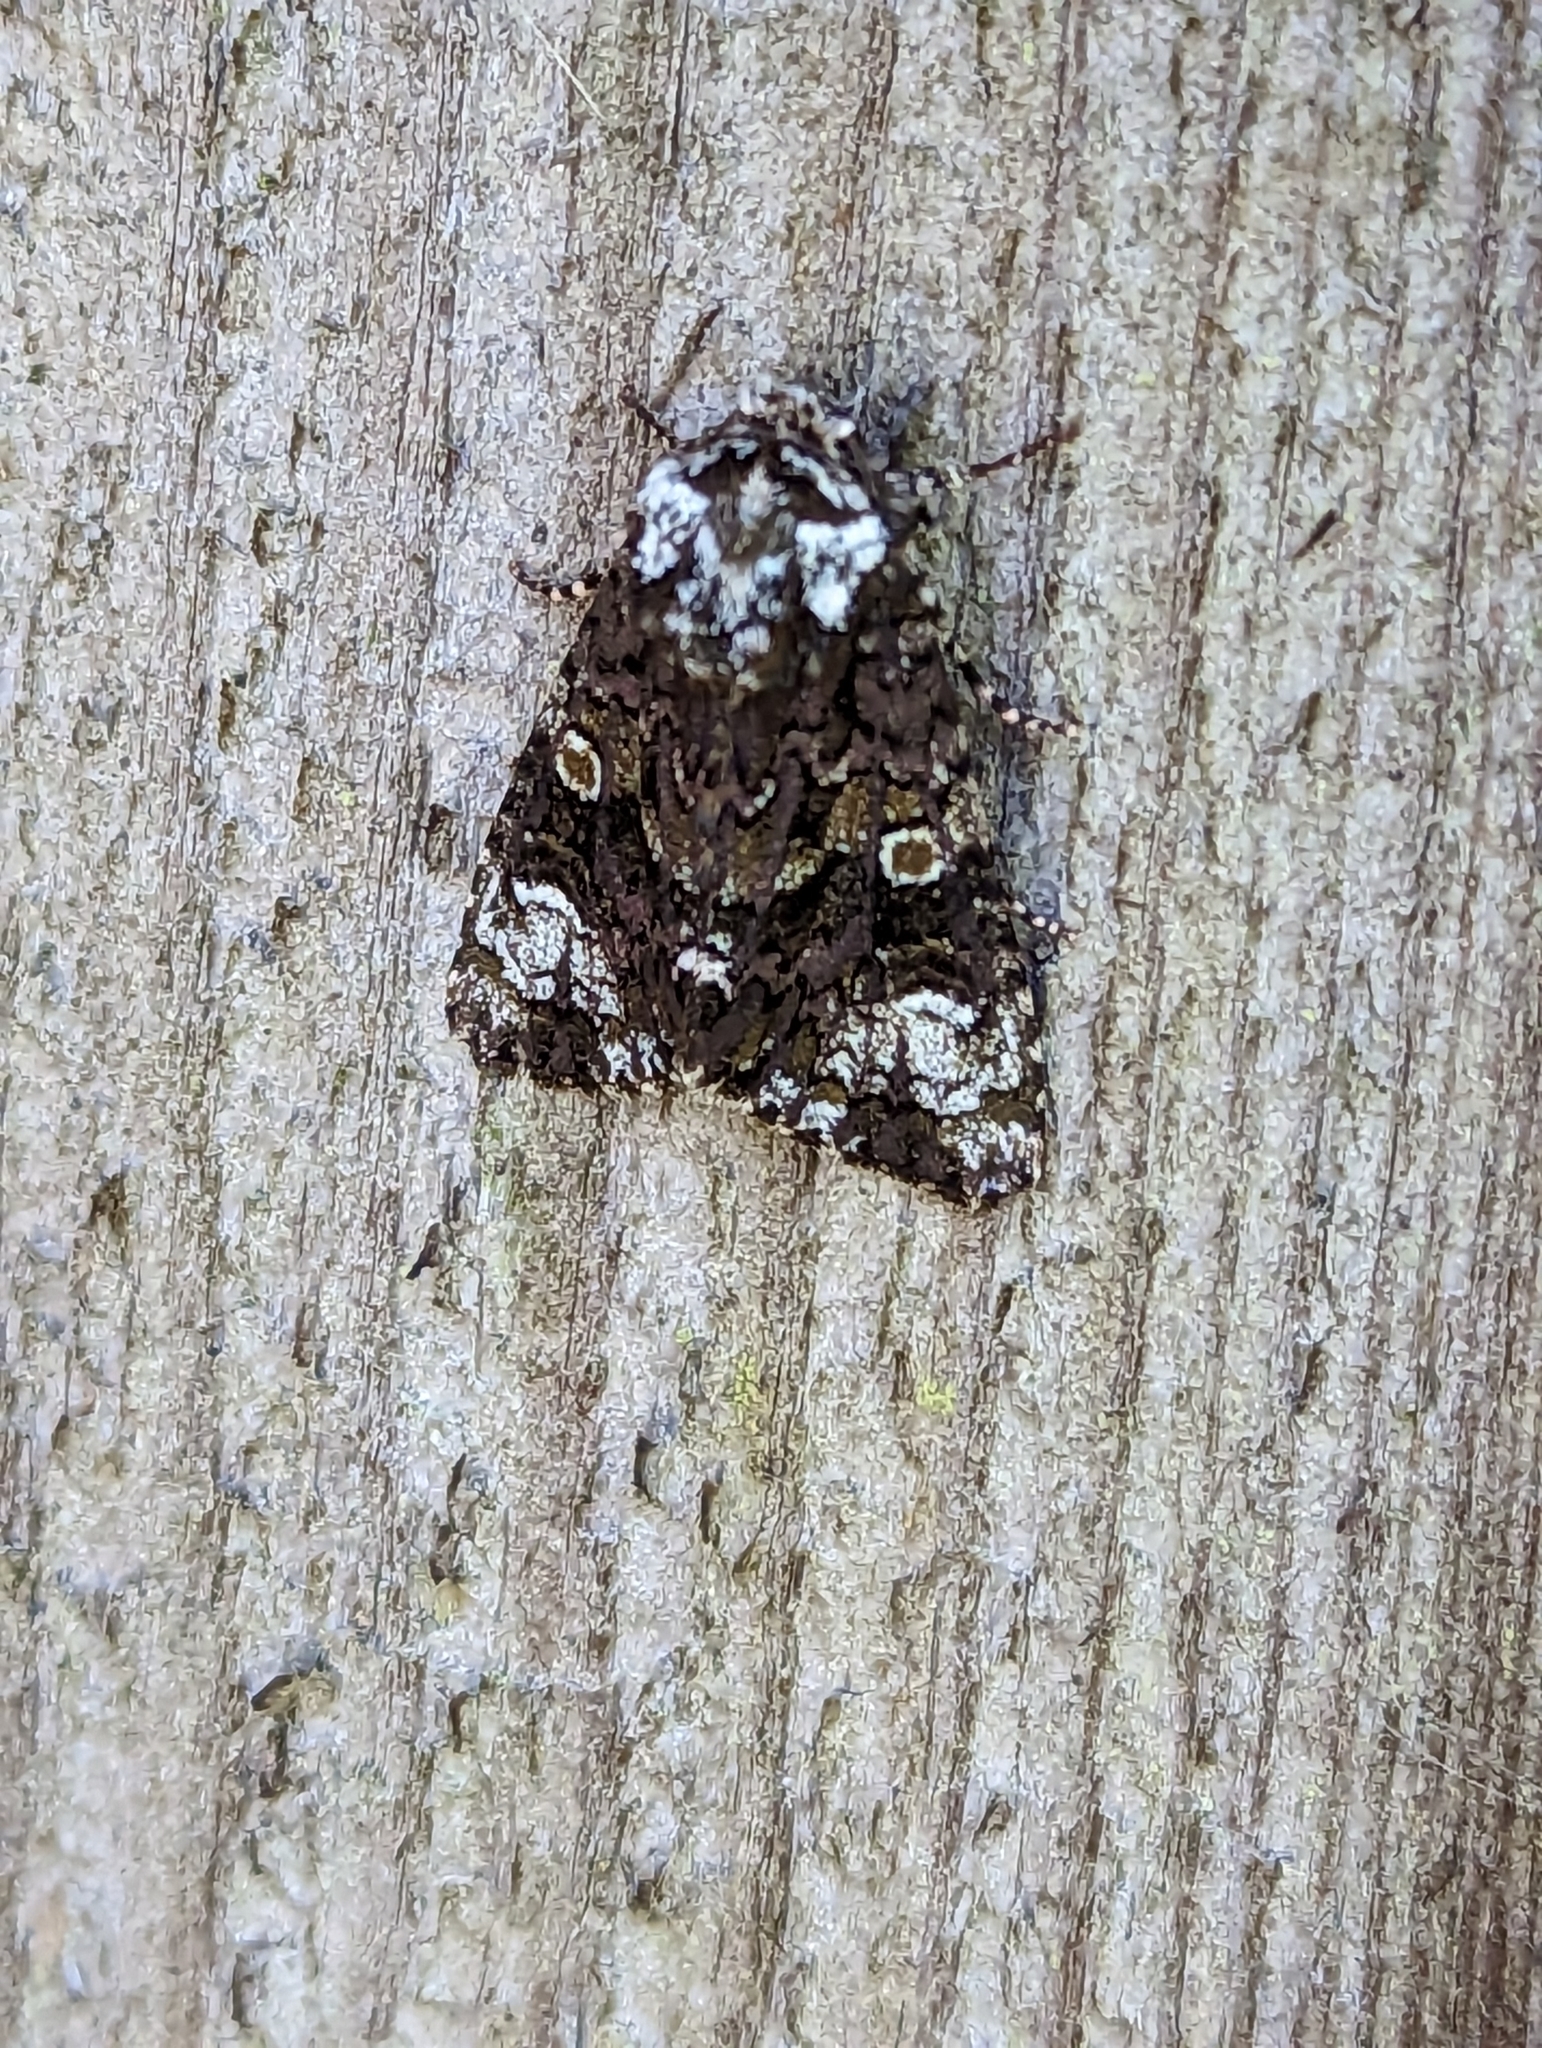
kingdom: Animalia
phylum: Arthropoda
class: Insecta
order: Lepidoptera
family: Noctuidae
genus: Craniophora
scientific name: Craniophora ligustri
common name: Coronet
